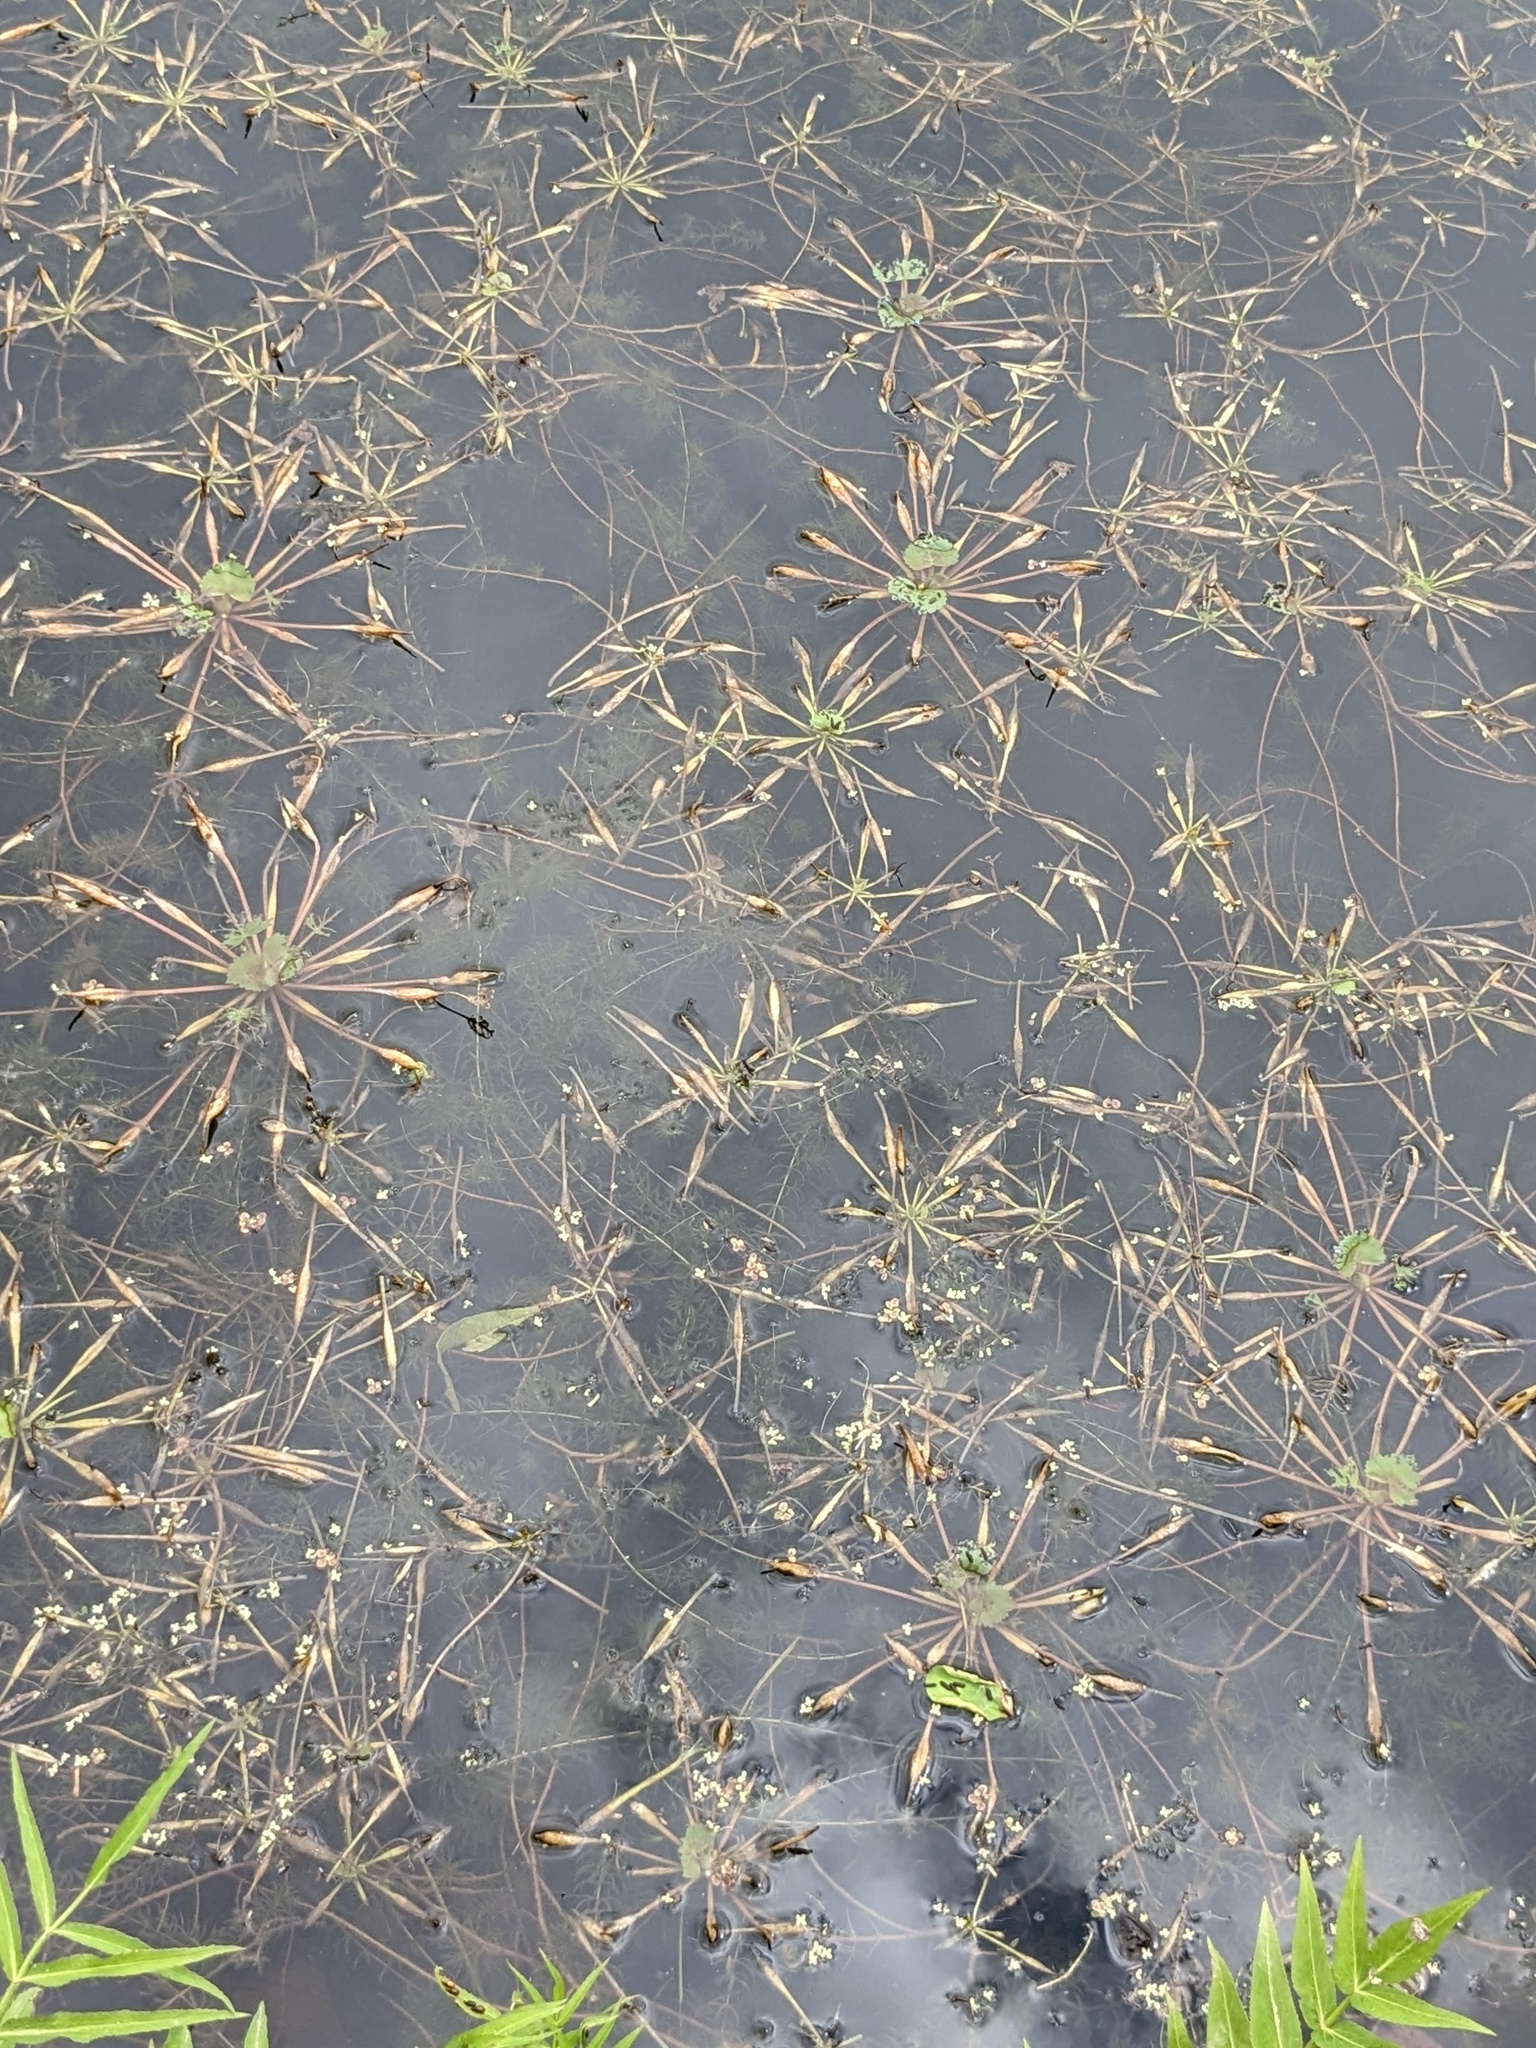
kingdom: Plantae
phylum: Tracheophyta
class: Magnoliopsida
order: Myrtales
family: Lythraceae
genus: Trapa
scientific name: Trapa natans
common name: Water chestnut
